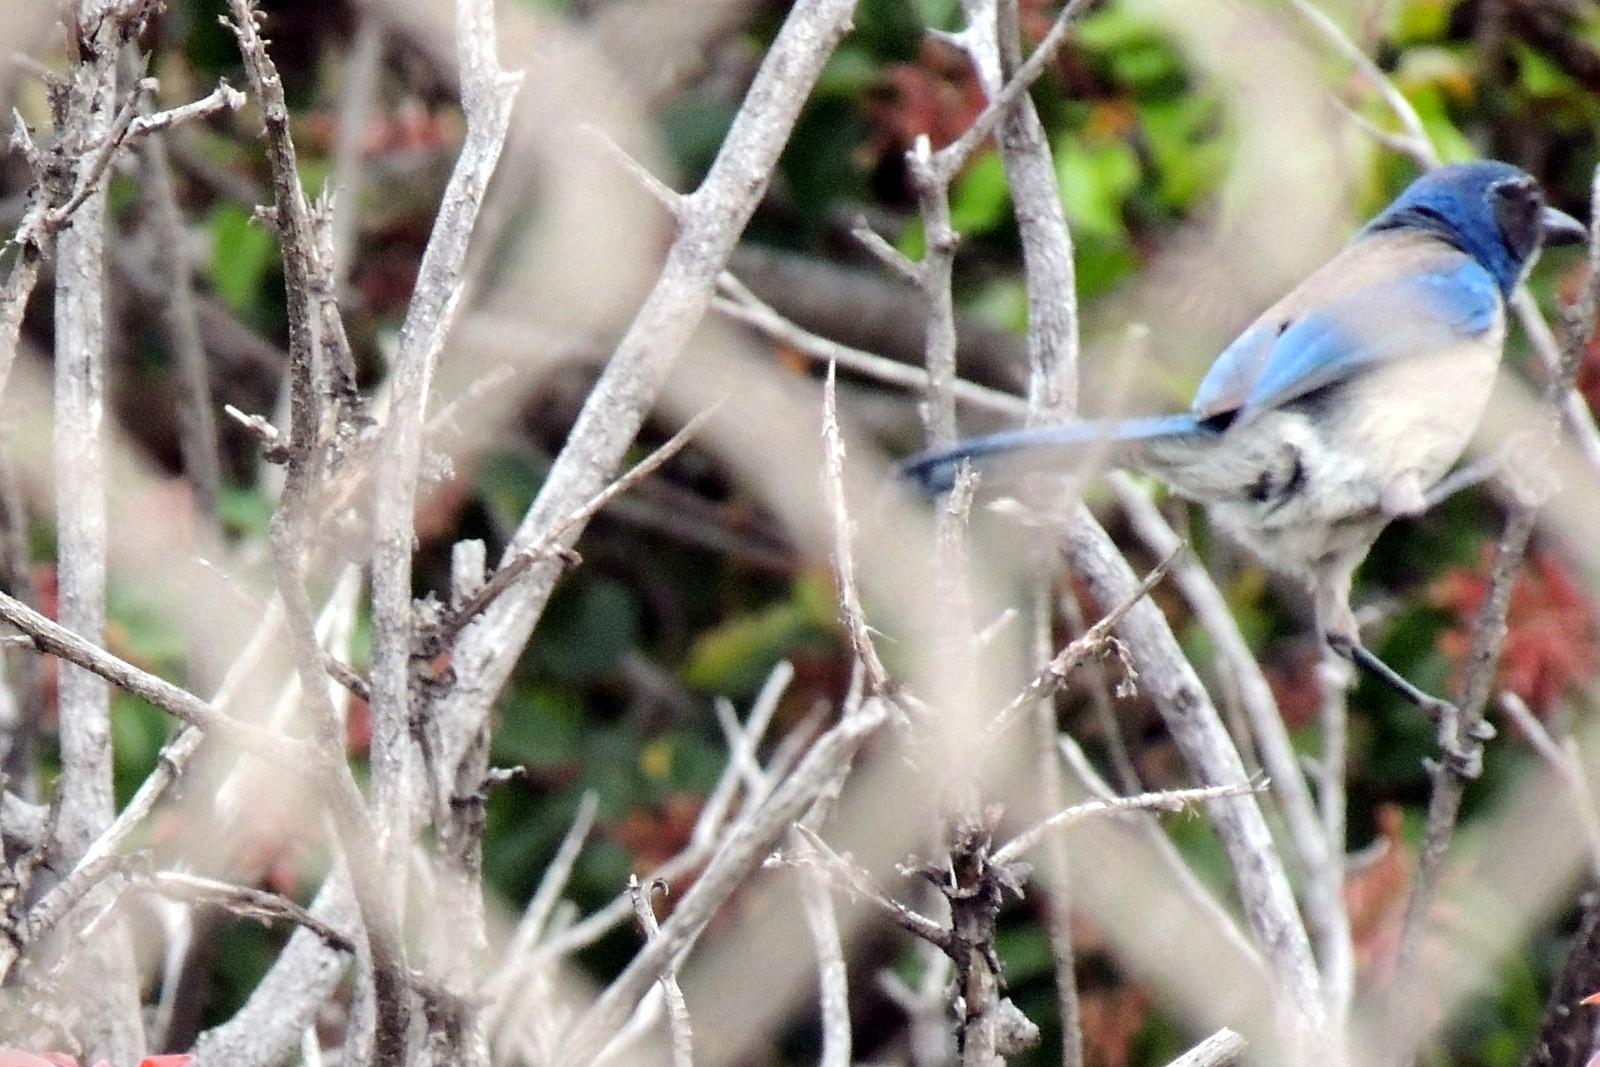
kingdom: Animalia
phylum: Chordata
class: Aves
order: Passeriformes
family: Corvidae
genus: Aphelocoma
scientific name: Aphelocoma californica
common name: California scrub-jay
